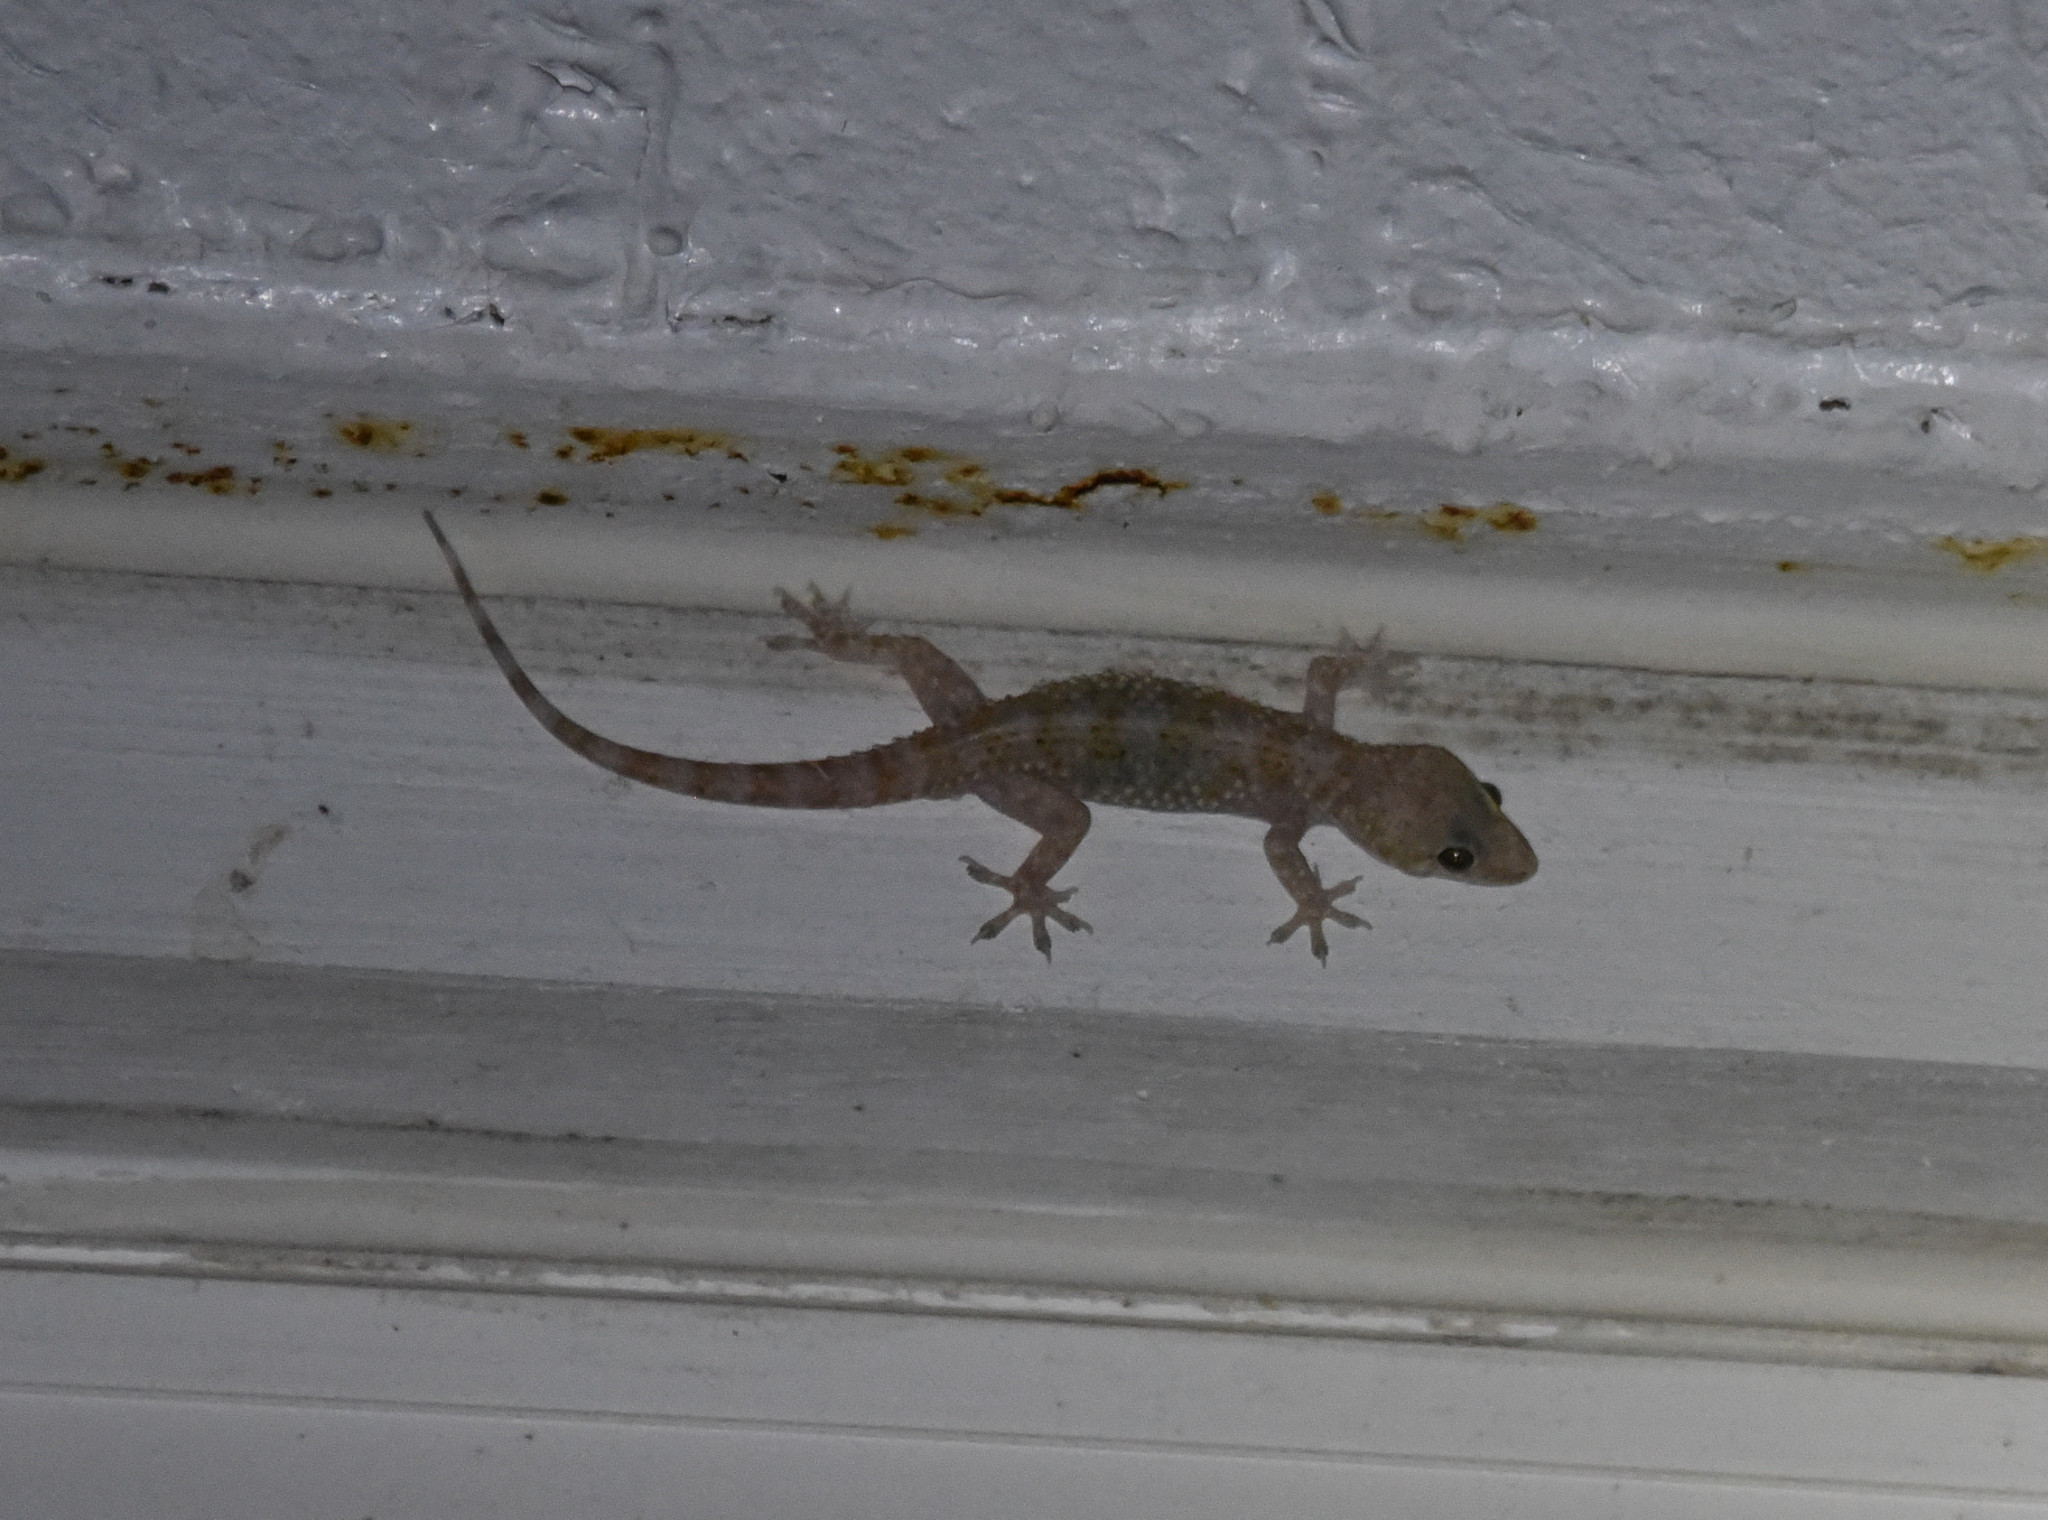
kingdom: Animalia
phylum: Chordata
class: Squamata
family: Gekkonidae
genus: Hemidactylus
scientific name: Hemidactylus turcicus
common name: Turkish gecko
